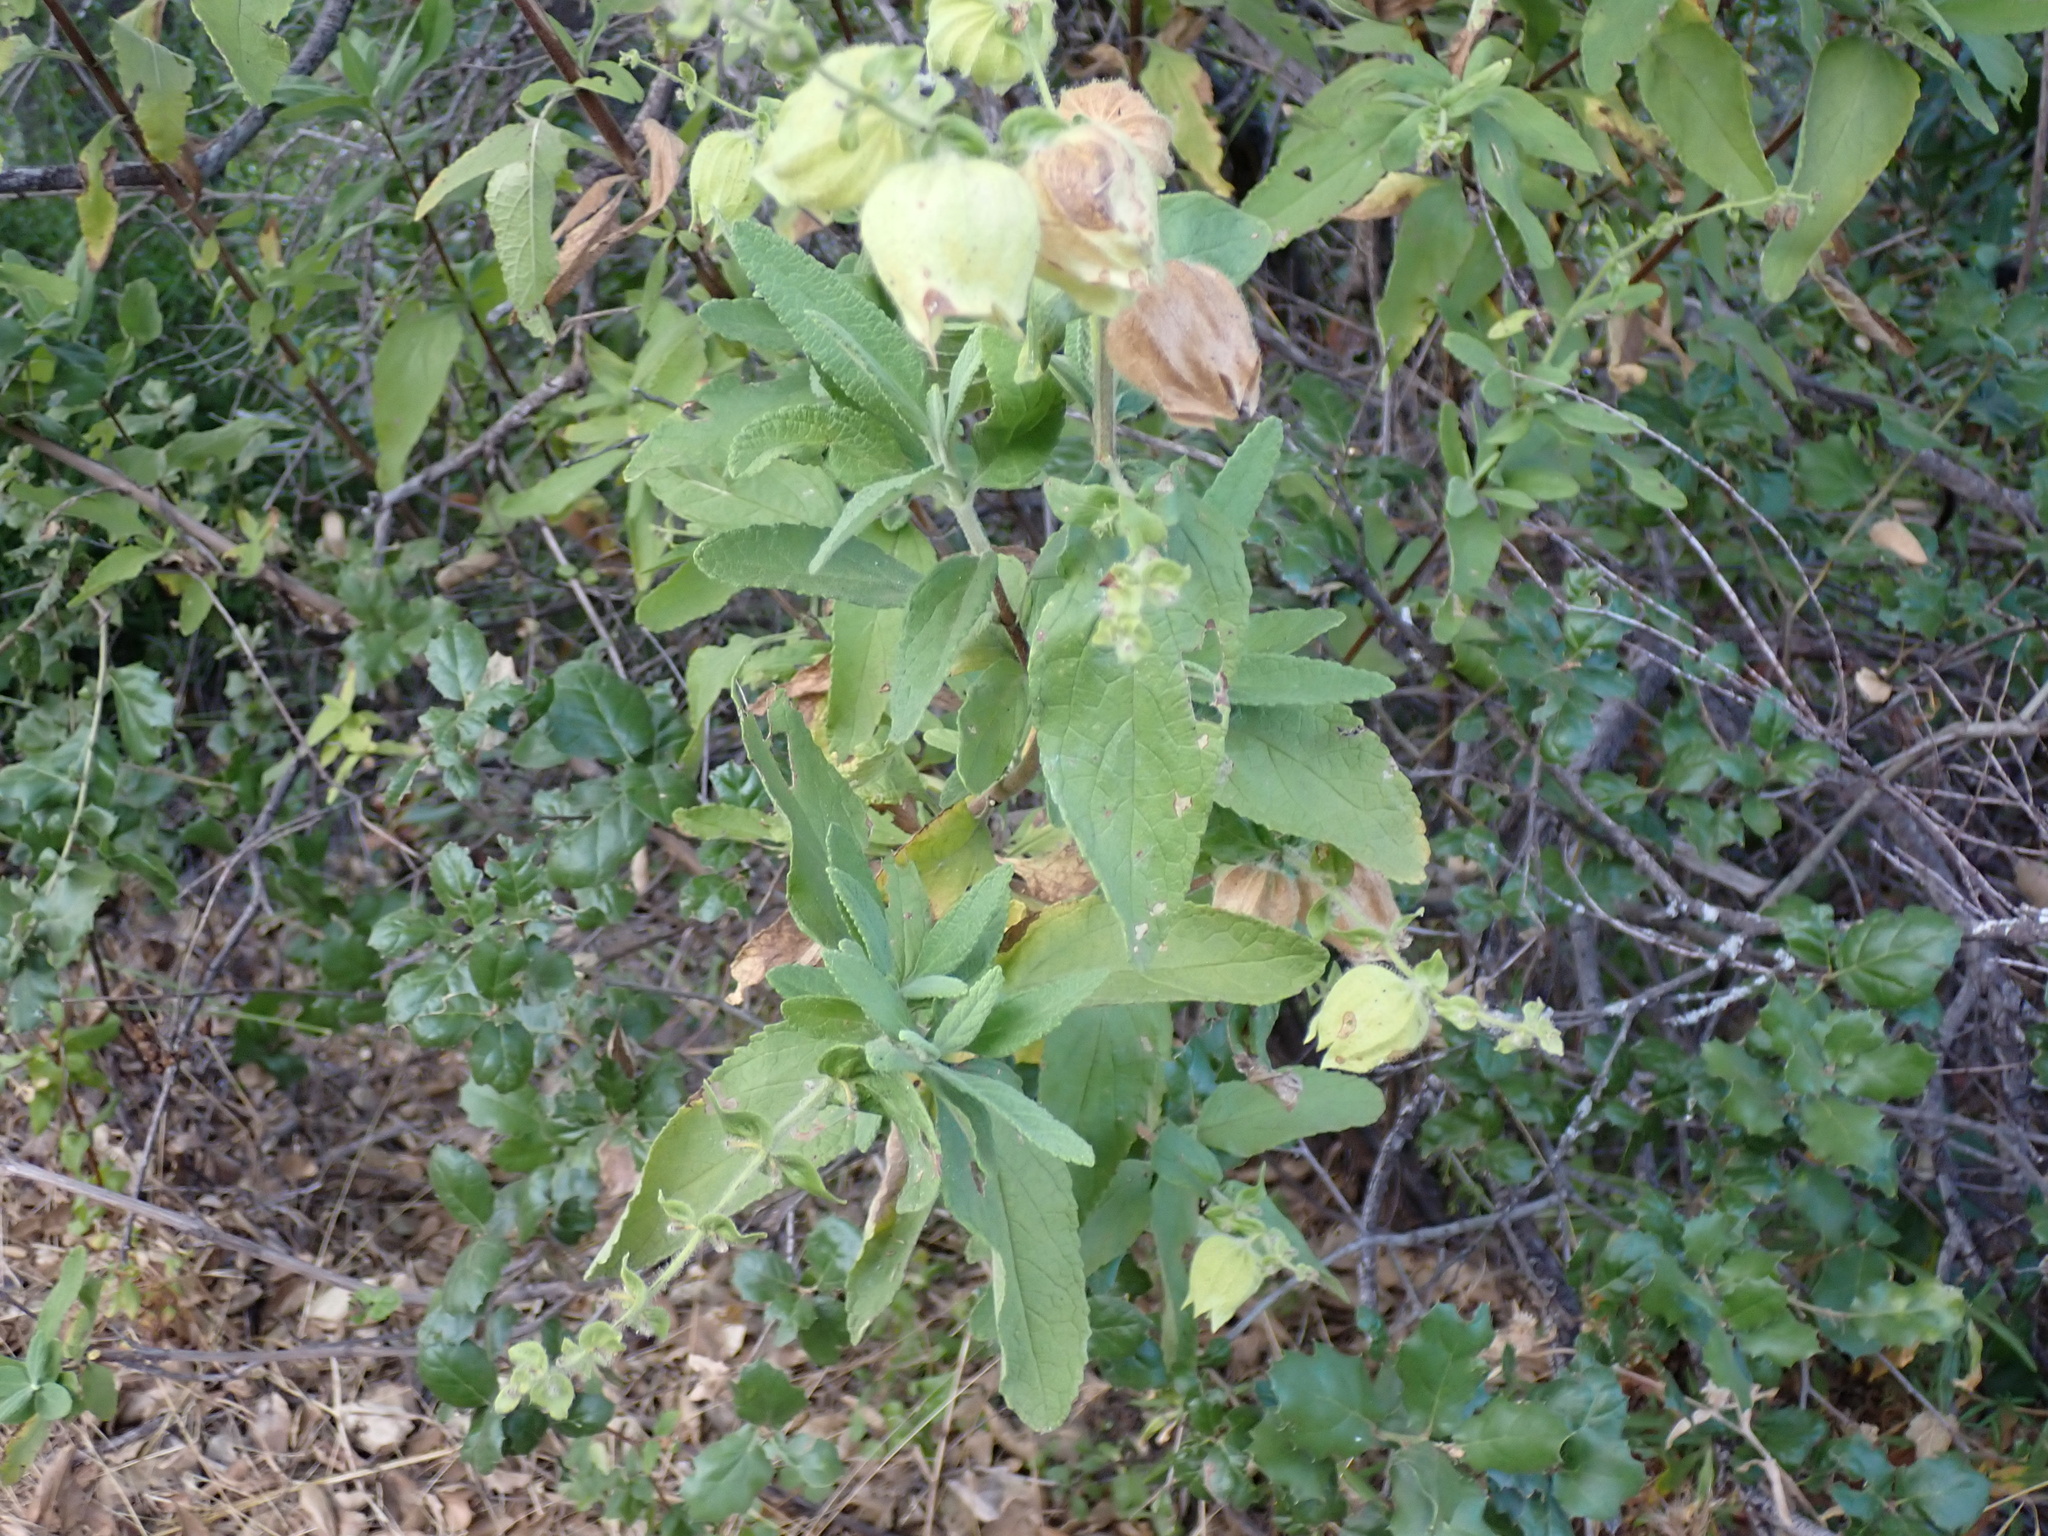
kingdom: Plantae
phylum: Tracheophyta
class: Magnoliopsida
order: Lamiales
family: Lamiaceae
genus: Lepechinia
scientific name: Lepechinia calycina
